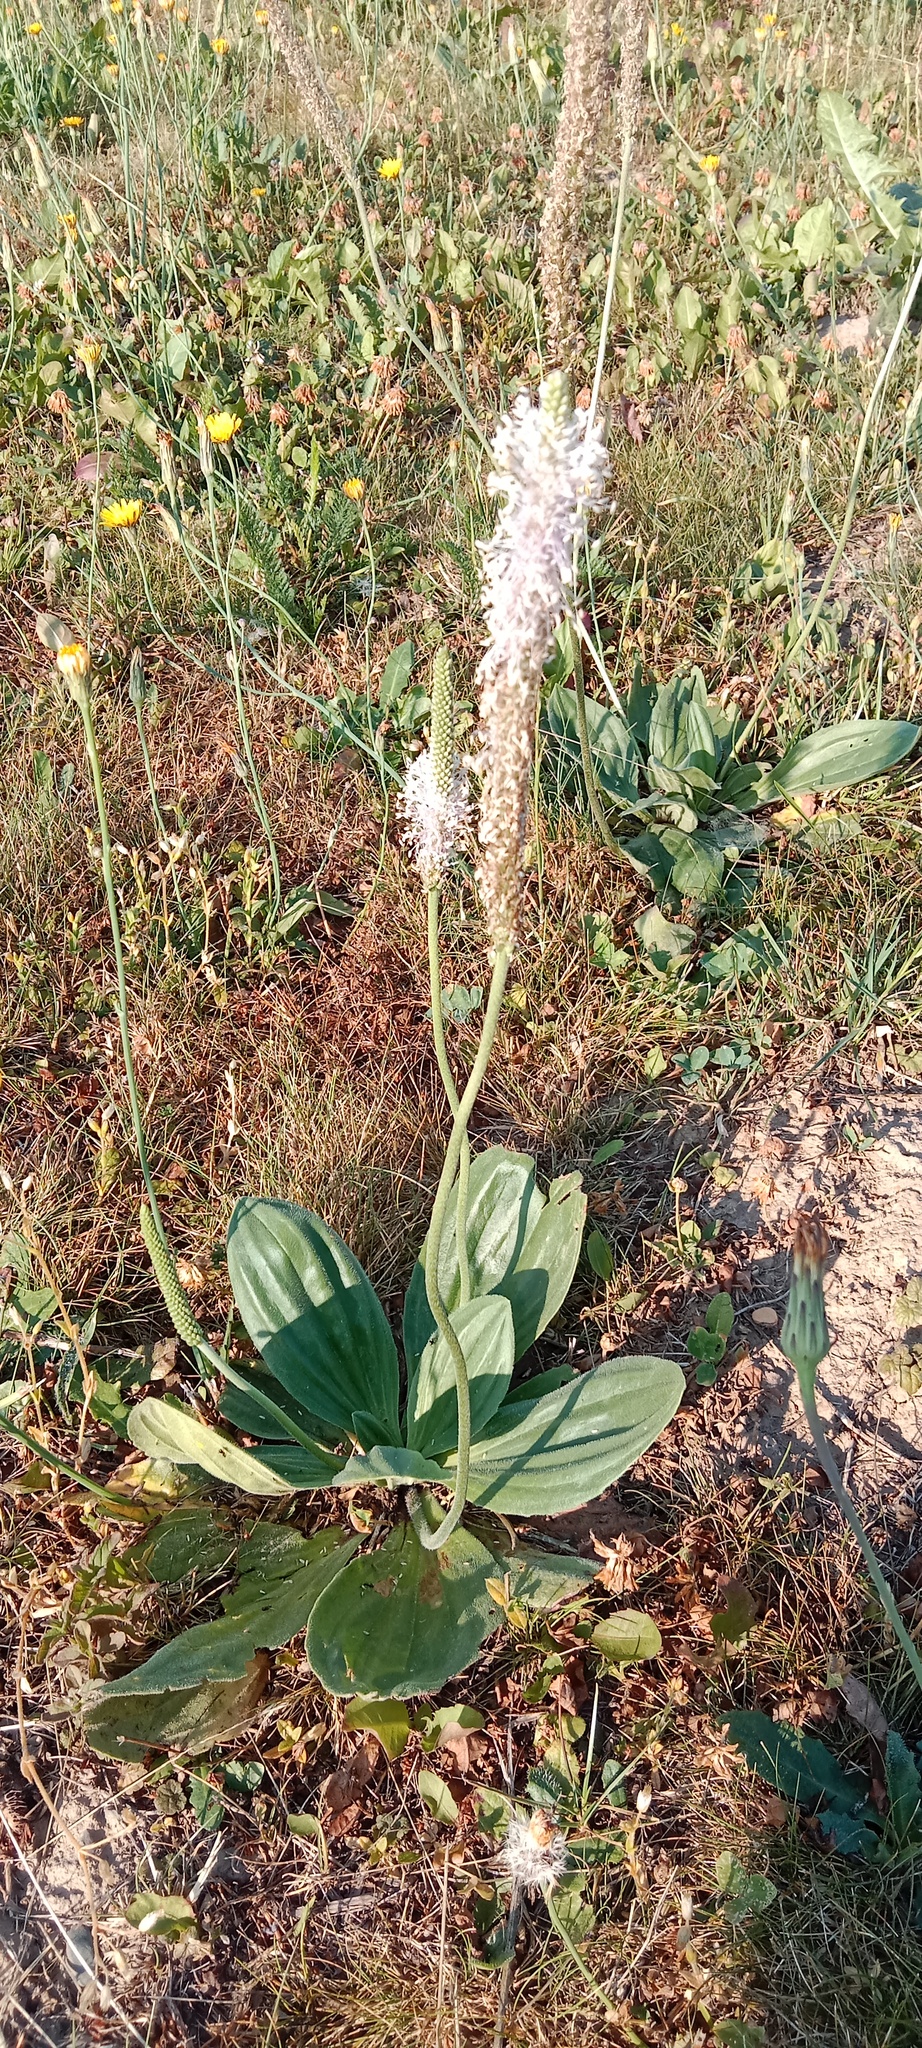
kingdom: Plantae
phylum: Tracheophyta
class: Magnoliopsida
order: Lamiales
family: Plantaginaceae
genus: Plantago
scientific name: Plantago media
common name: Hoary plantain
